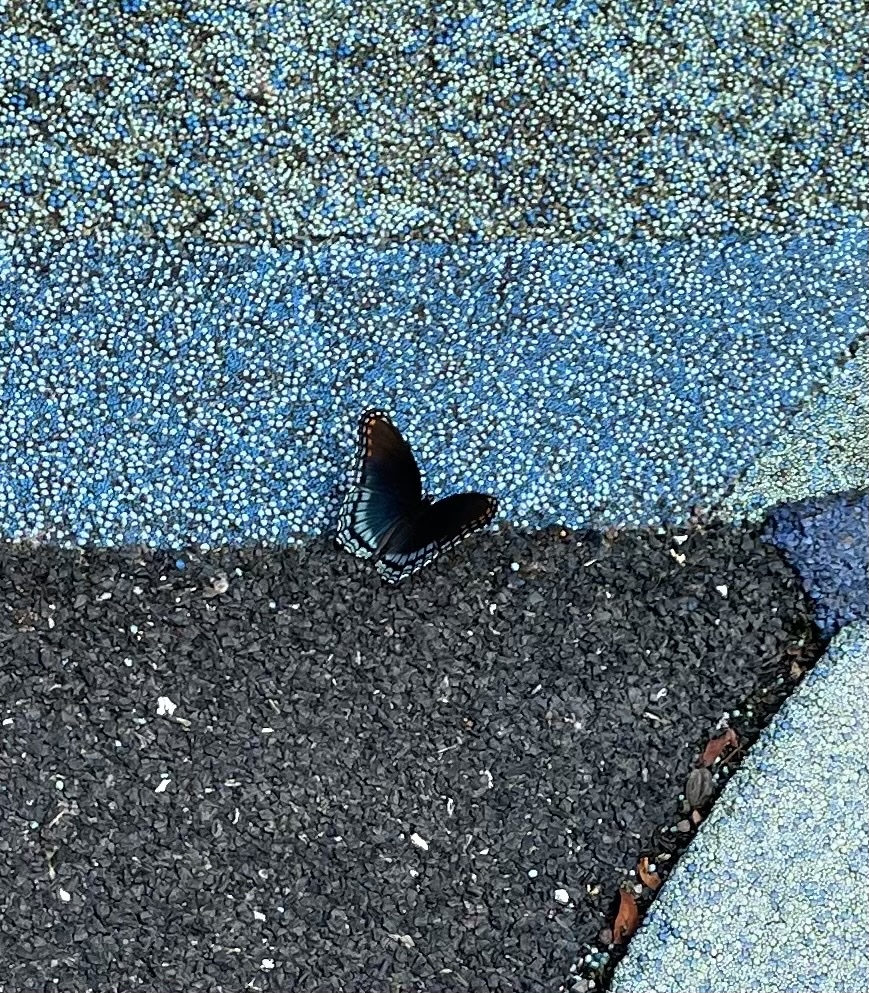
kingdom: Animalia
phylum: Arthropoda
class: Insecta
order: Lepidoptera
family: Nymphalidae
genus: Limenitis
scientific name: Limenitis astyanax
